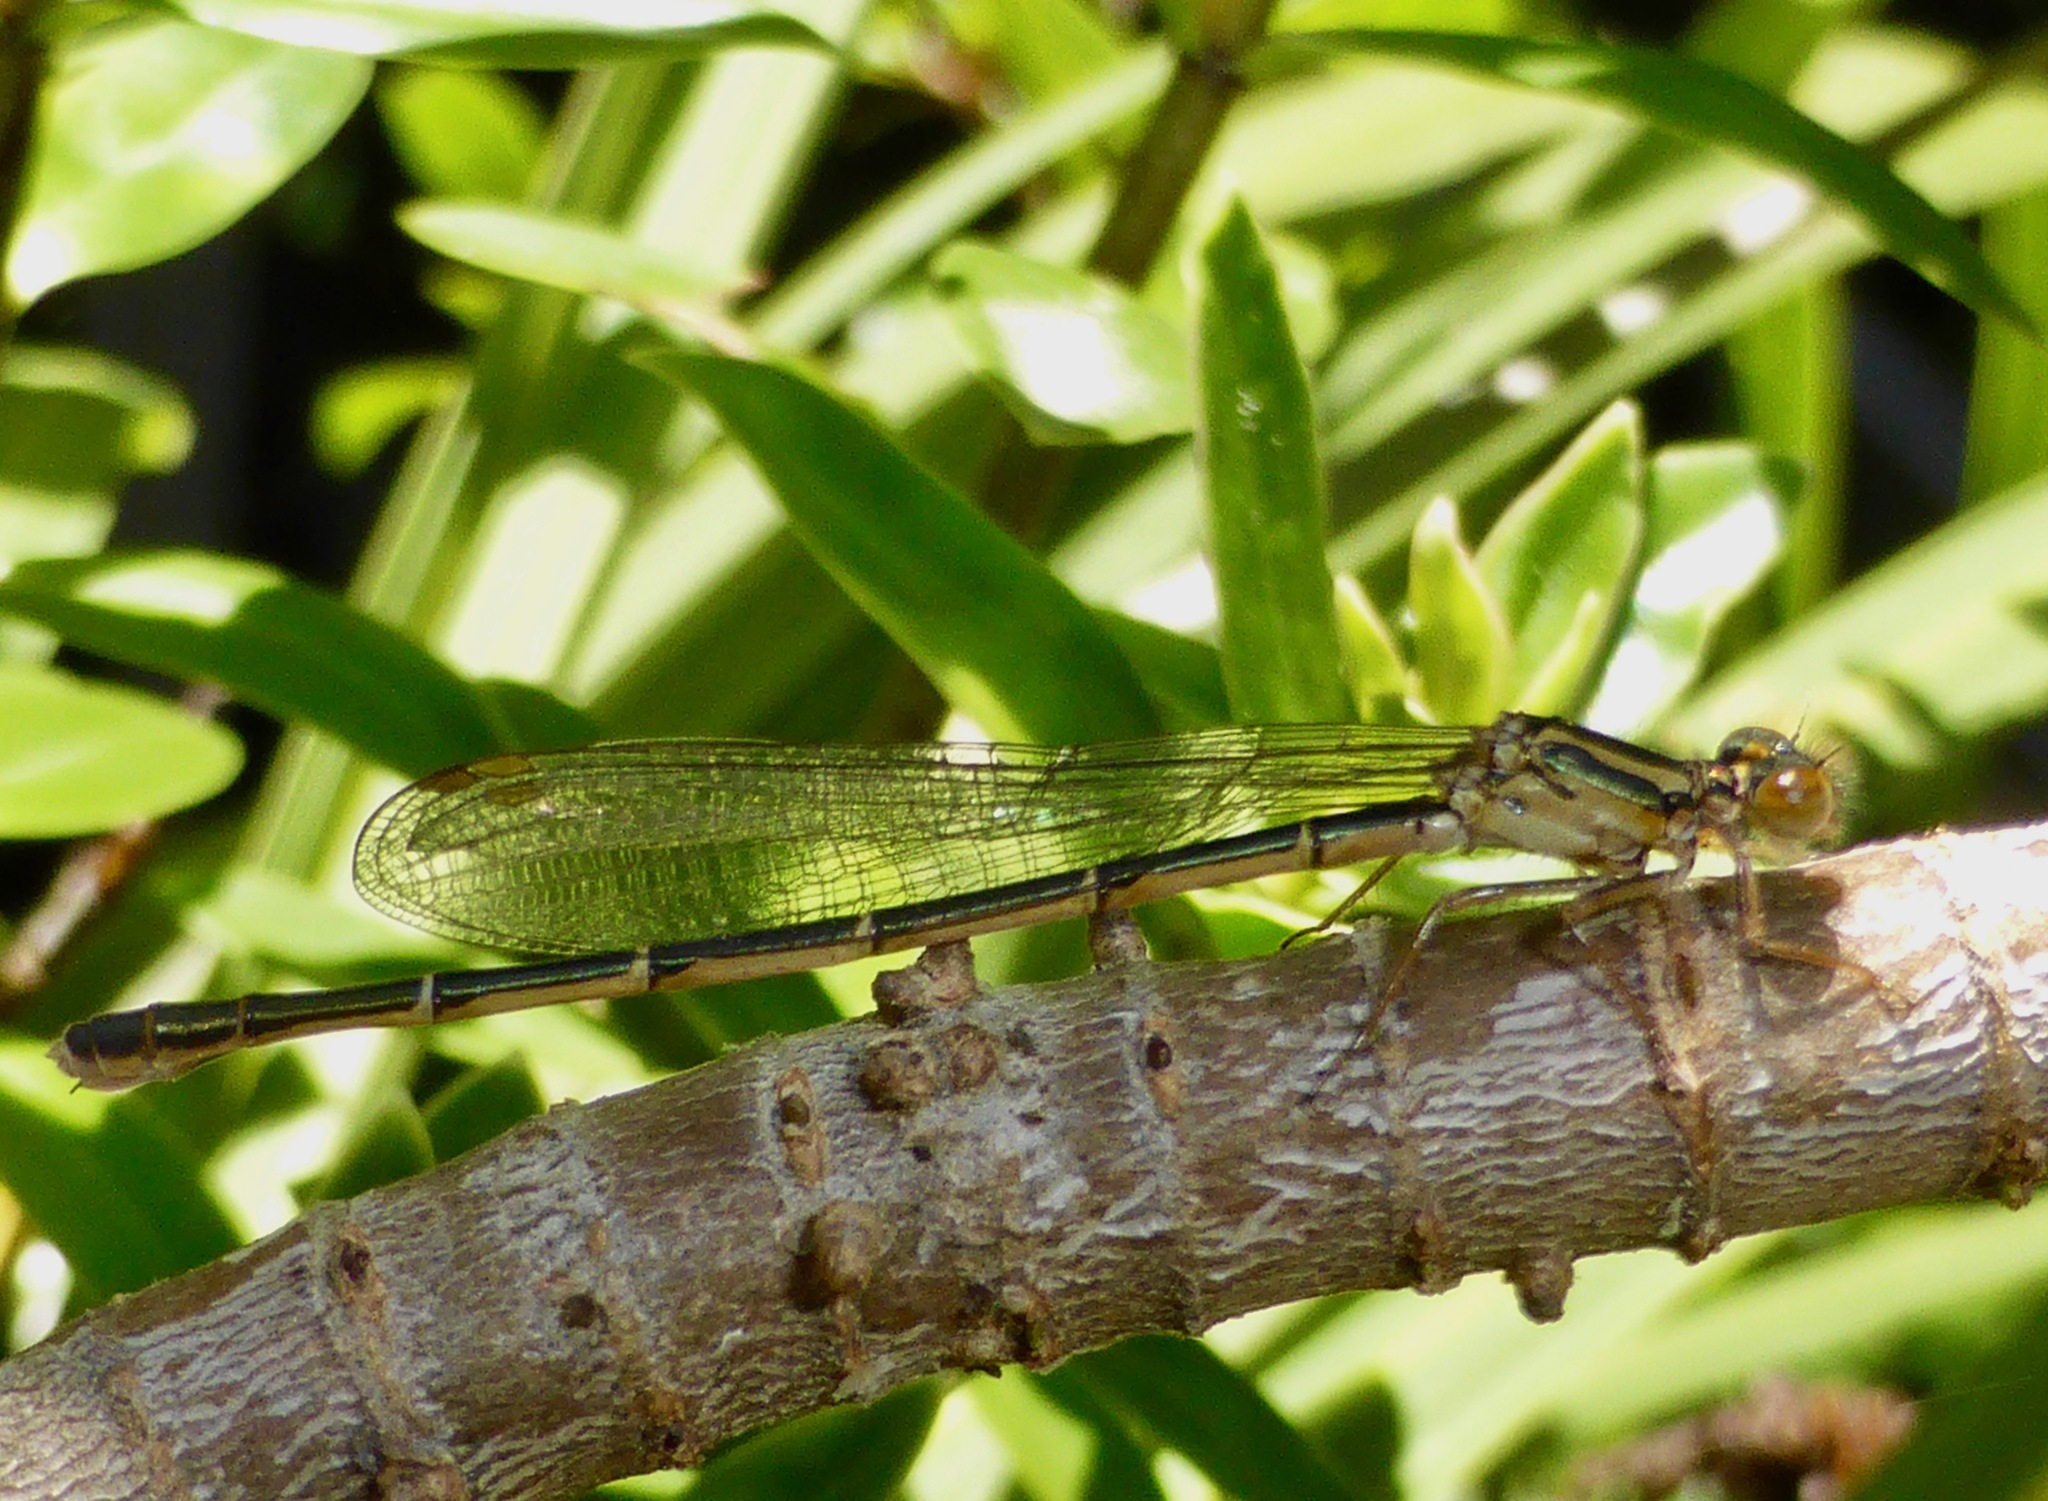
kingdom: Animalia
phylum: Arthropoda
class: Insecta
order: Odonata
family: Coenagrionidae
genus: Xanthocnemis
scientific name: Xanthocnemis zealandica
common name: Common redcoat damselfly
